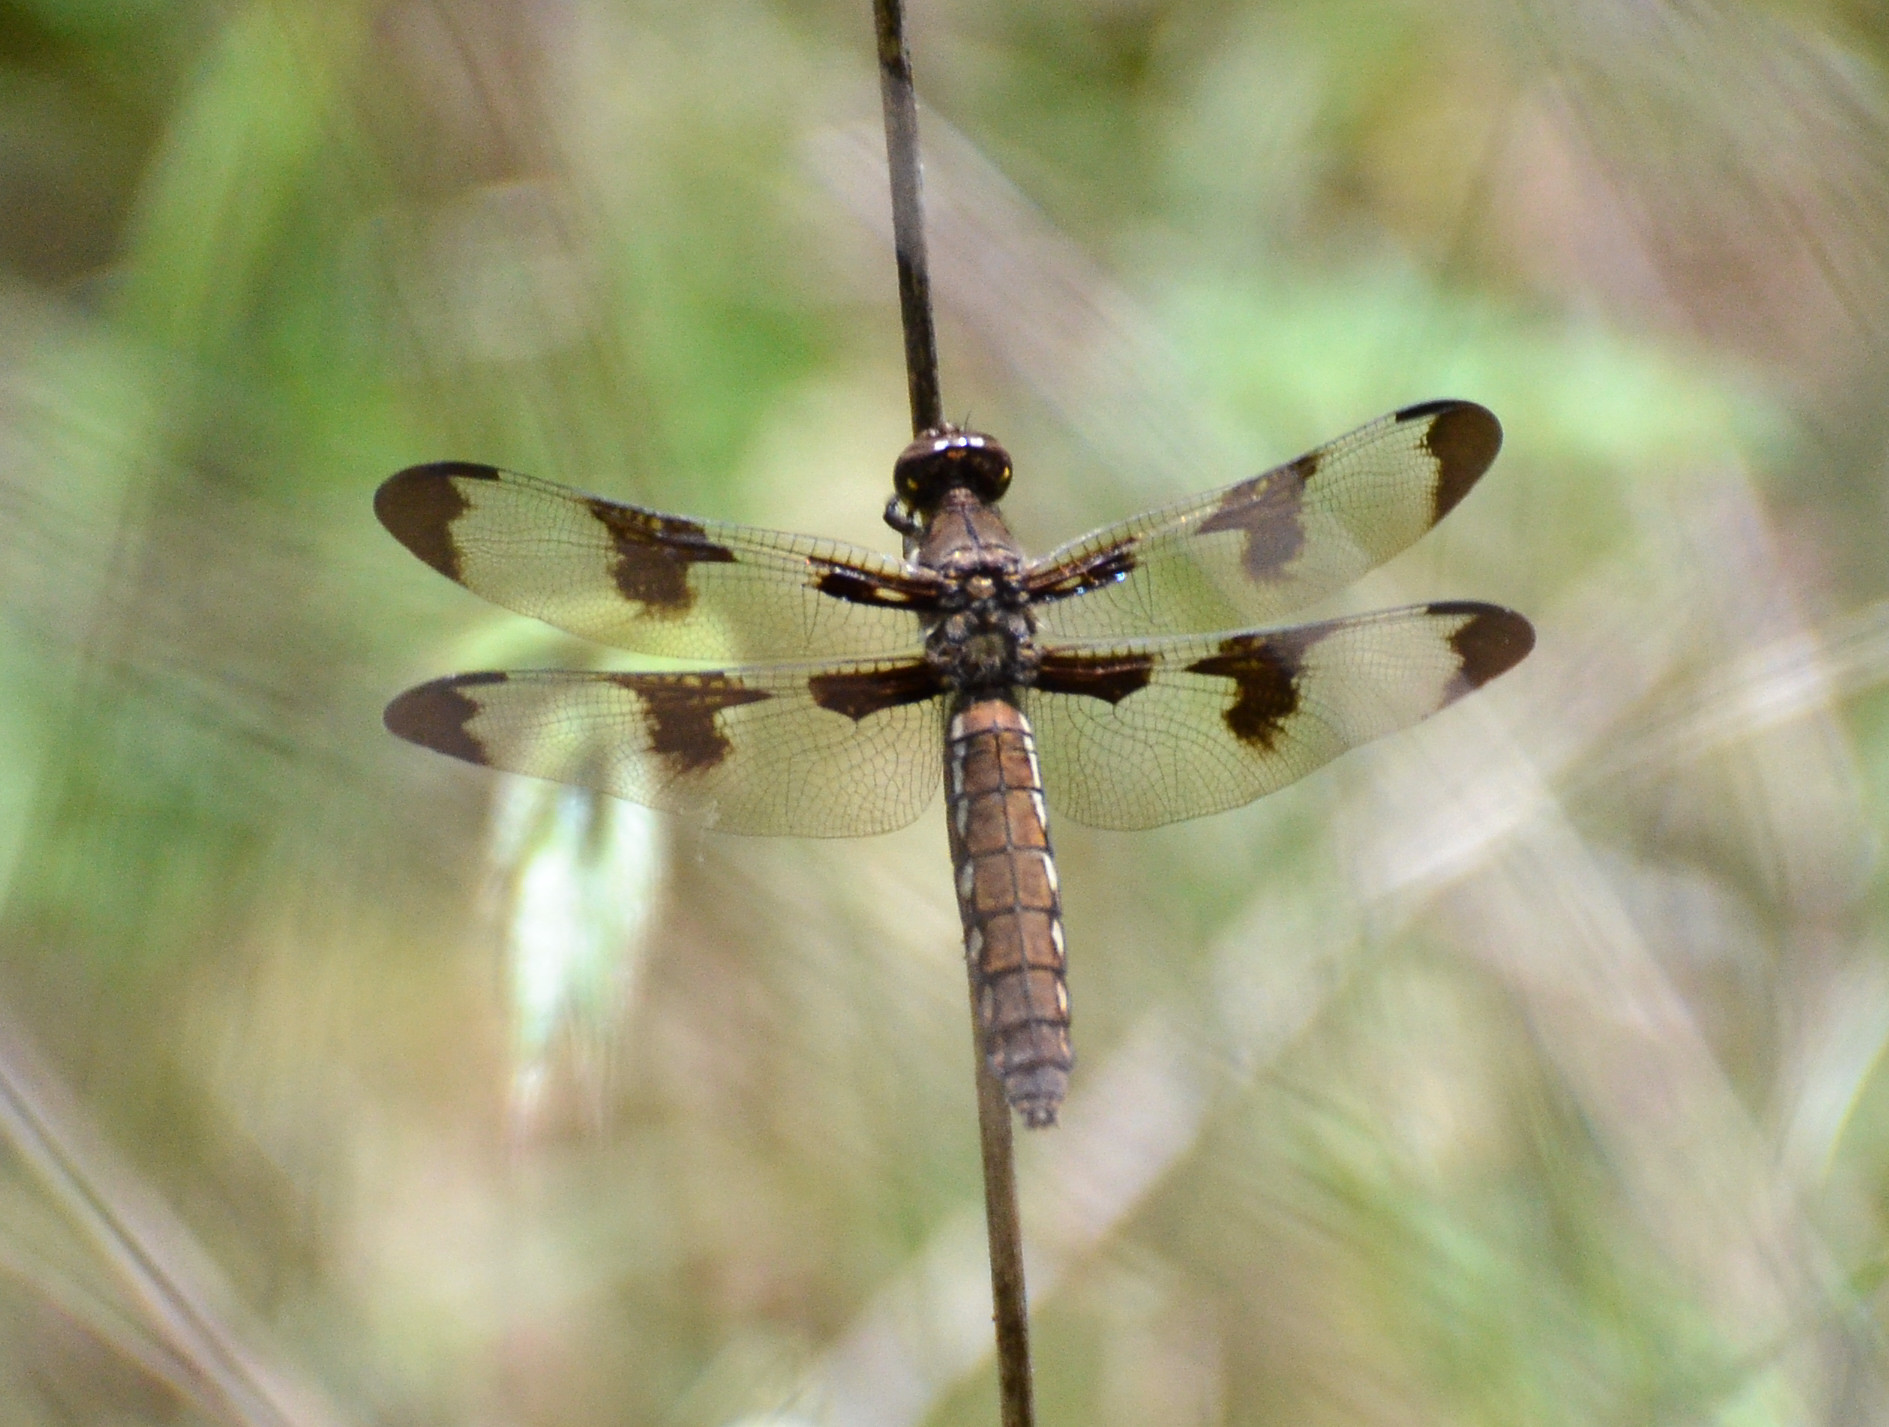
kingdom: Animalia
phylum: Arthropoda
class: Insecta
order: Odonata
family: Libellulidae
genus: Plathemis
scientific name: Plathemis lydia
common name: Common whitetail
